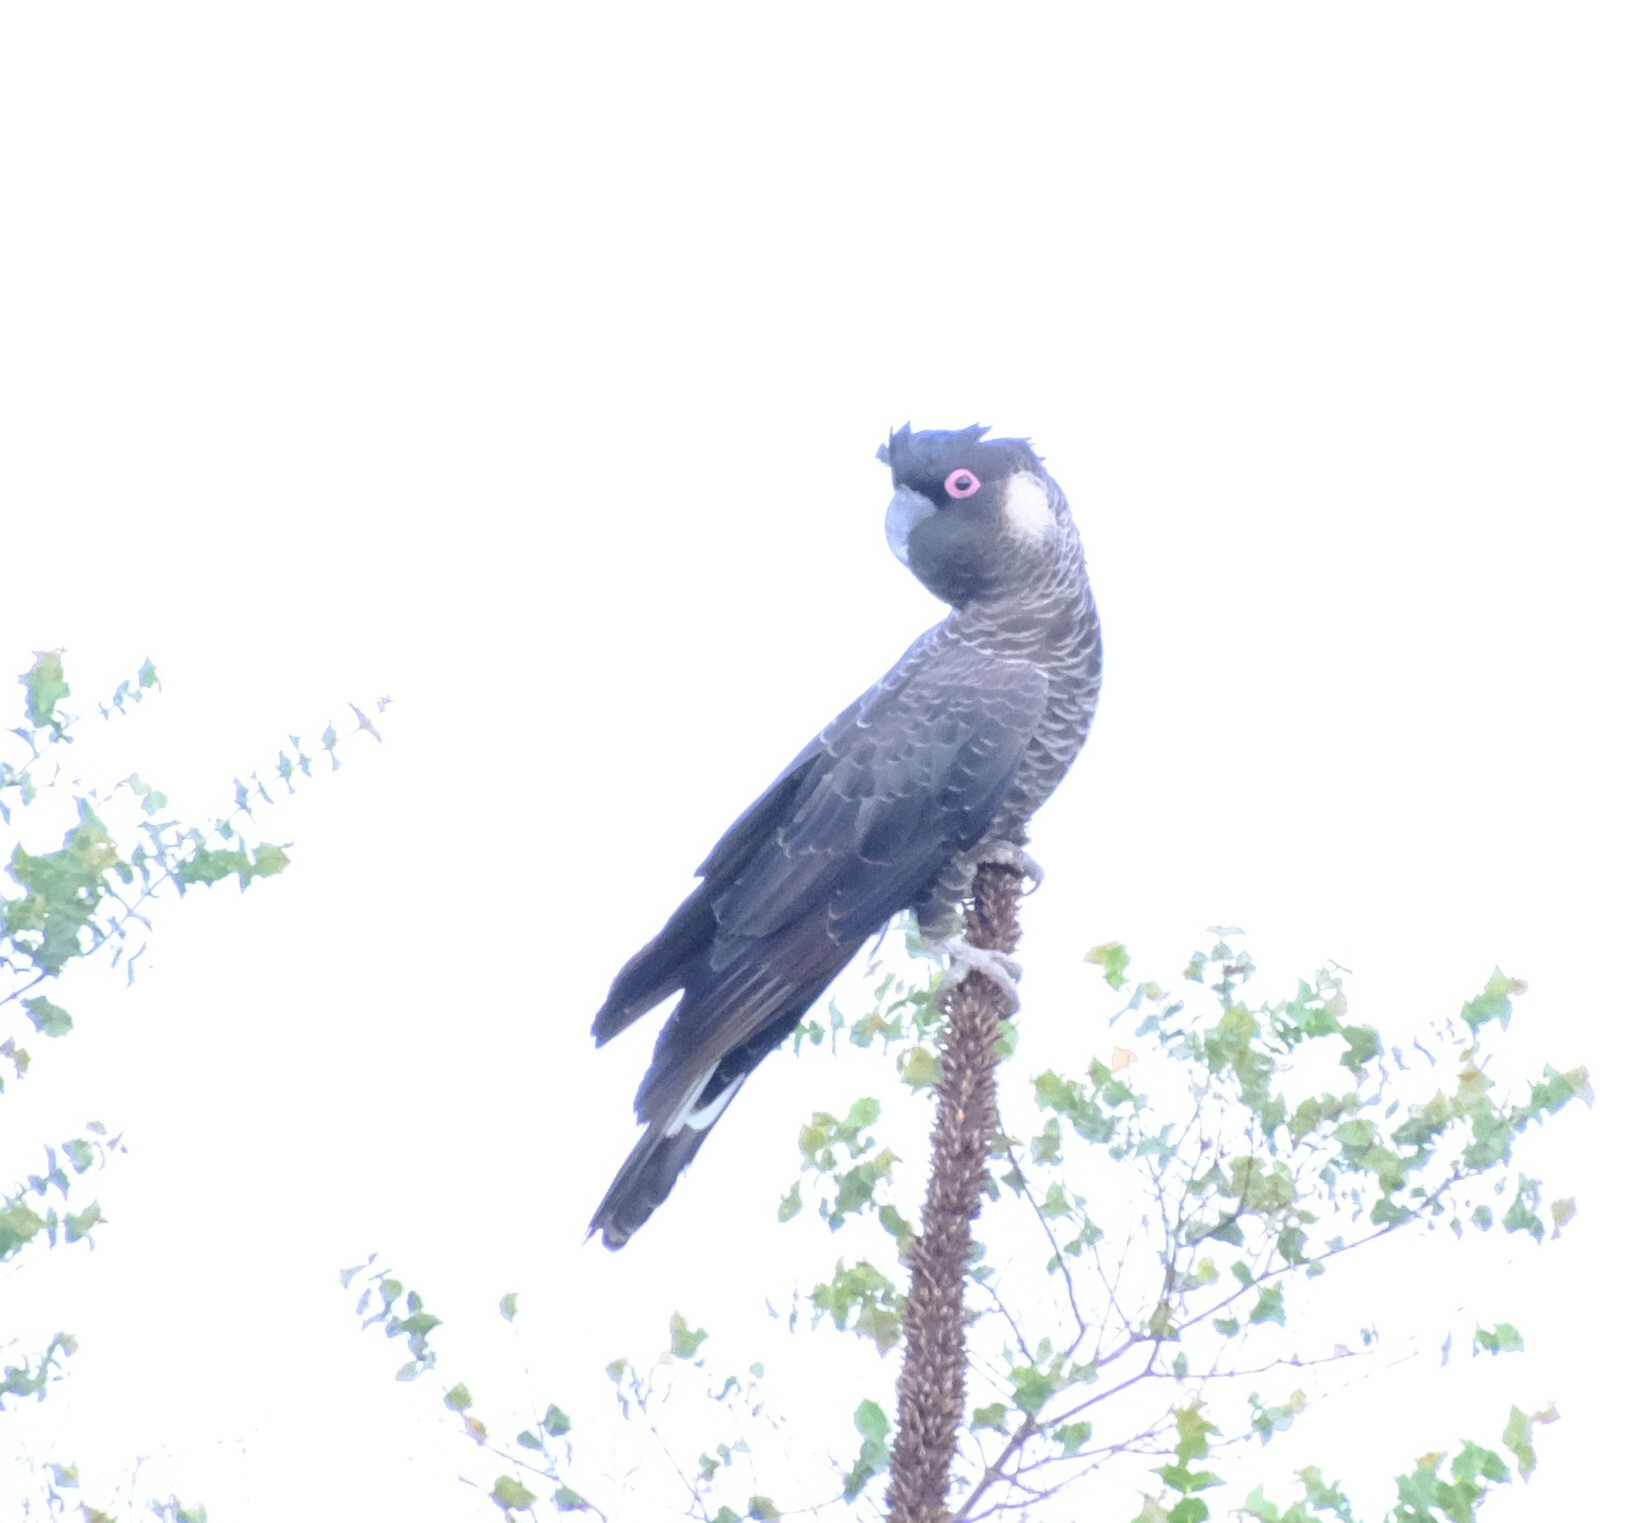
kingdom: Animalia
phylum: Chordata
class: Aves
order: Psittaciformes
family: Cacatuidae
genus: Zanda
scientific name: Zanda latirostris
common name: Short-billed black-cockatoo
